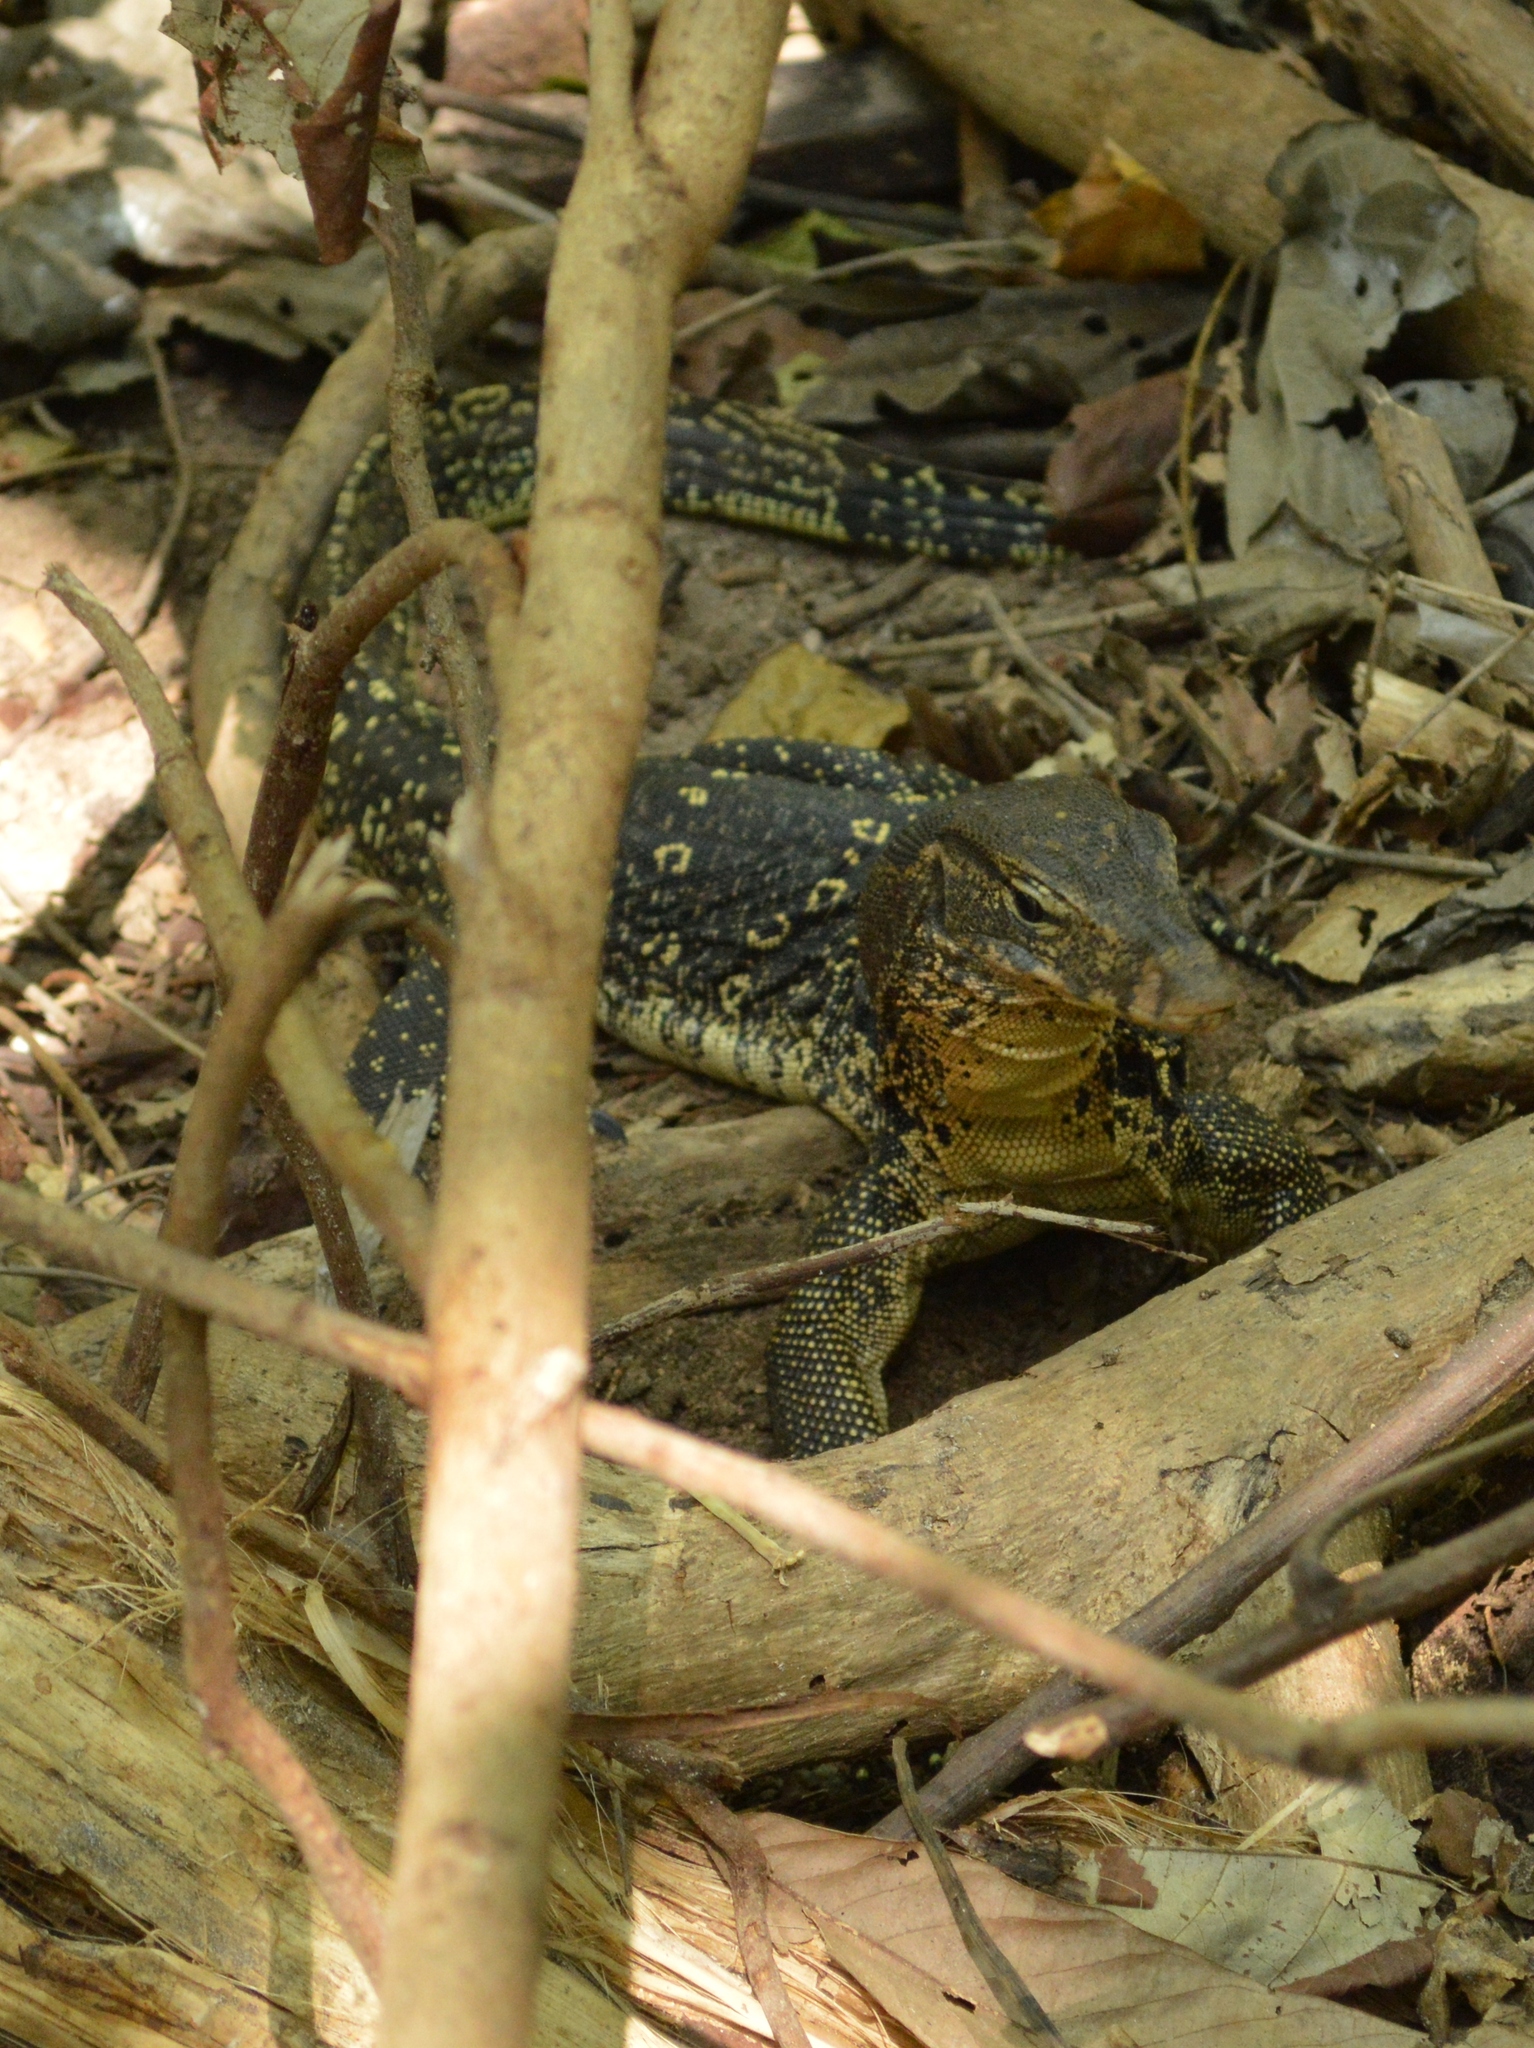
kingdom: Animalia
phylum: Chordata
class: Squamata
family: Varanidae
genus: Varanus
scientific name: Varanus salvator
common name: Common water monitor
